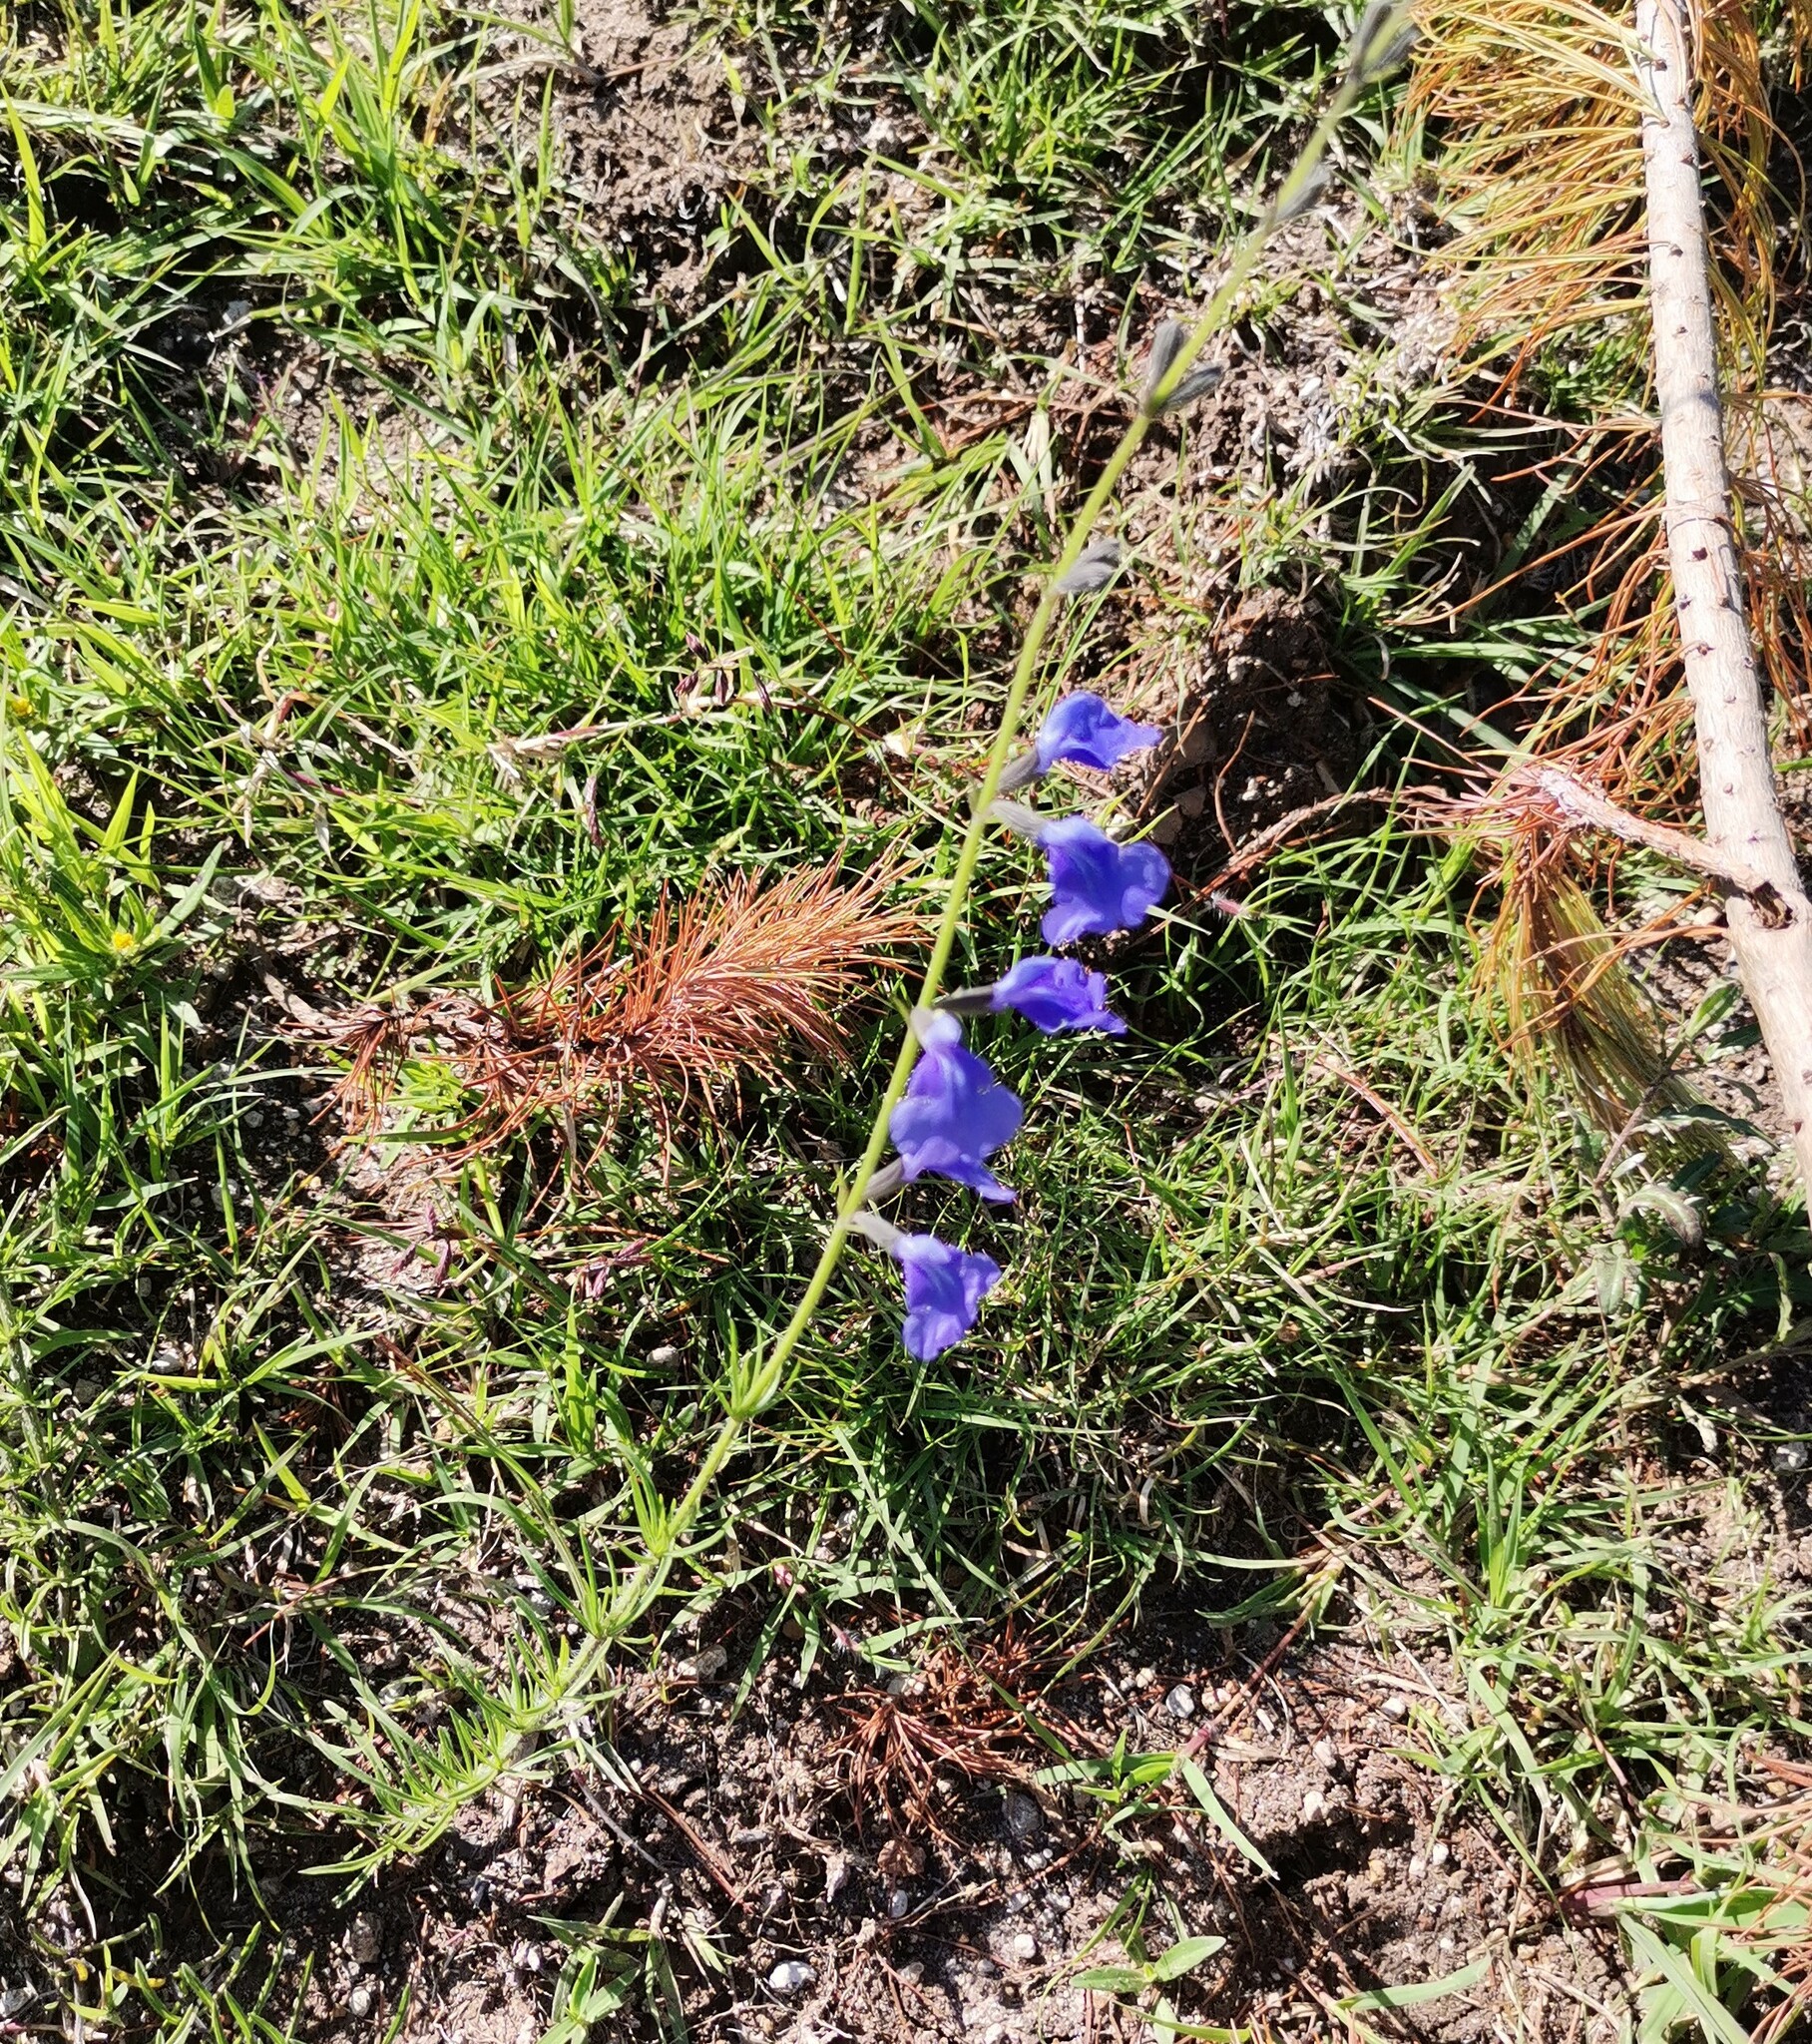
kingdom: Plantae
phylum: Tracheophyta
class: Magnoliopsida
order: Lamiales
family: Lamiaceae
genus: Salvia
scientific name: Salvia reptans
